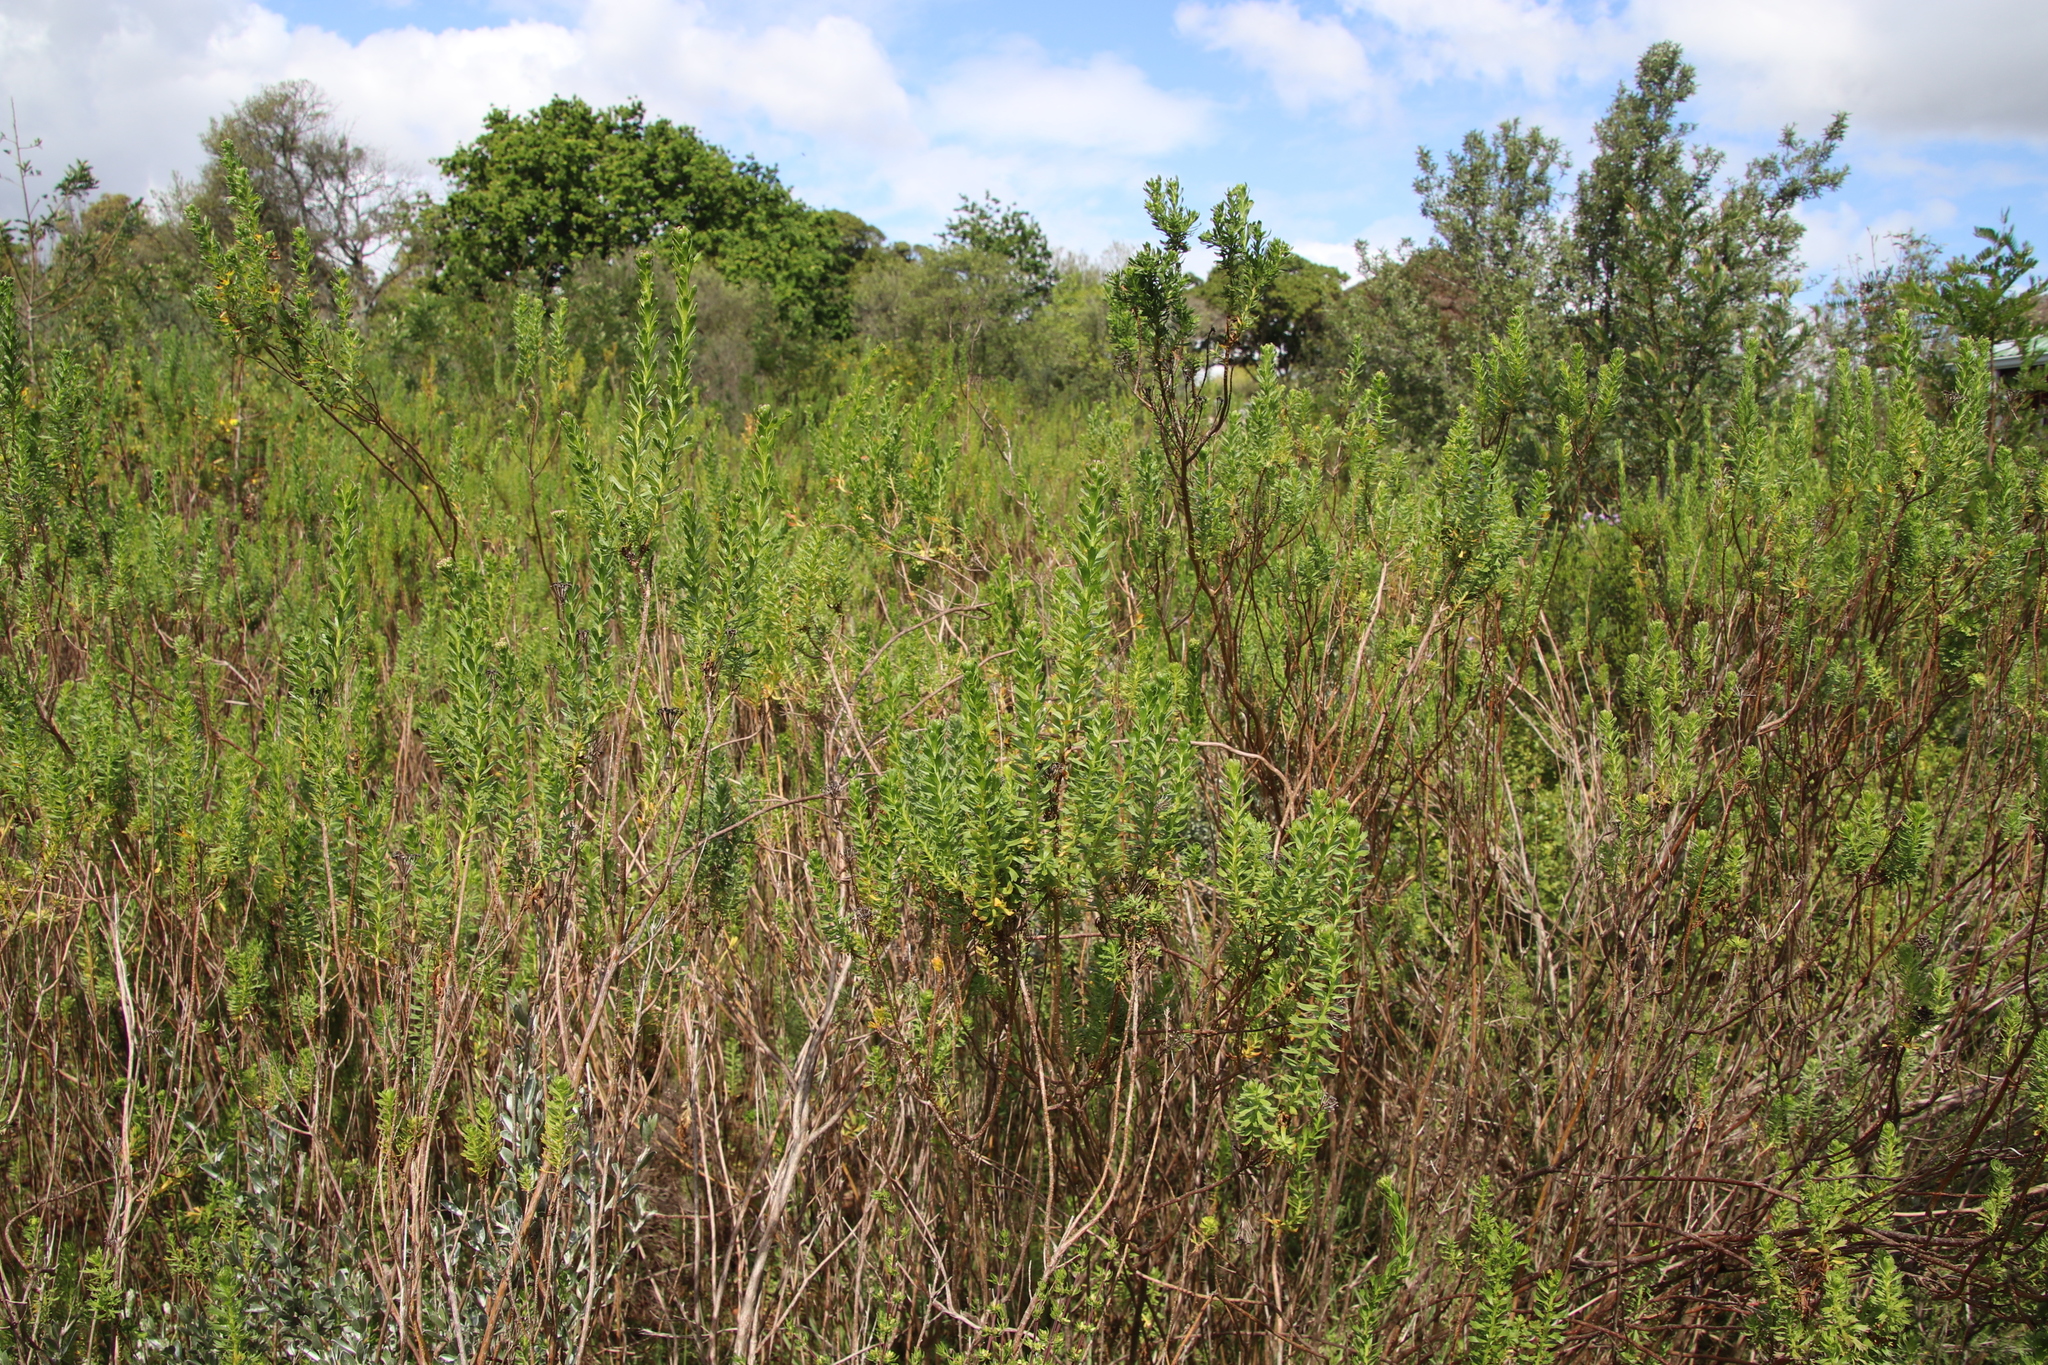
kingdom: Plantae
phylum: Tracheophyta
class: Magnoliopsida
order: Asterales
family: Asteraceae
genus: Athanasia
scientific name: Athanasia trifurcata
